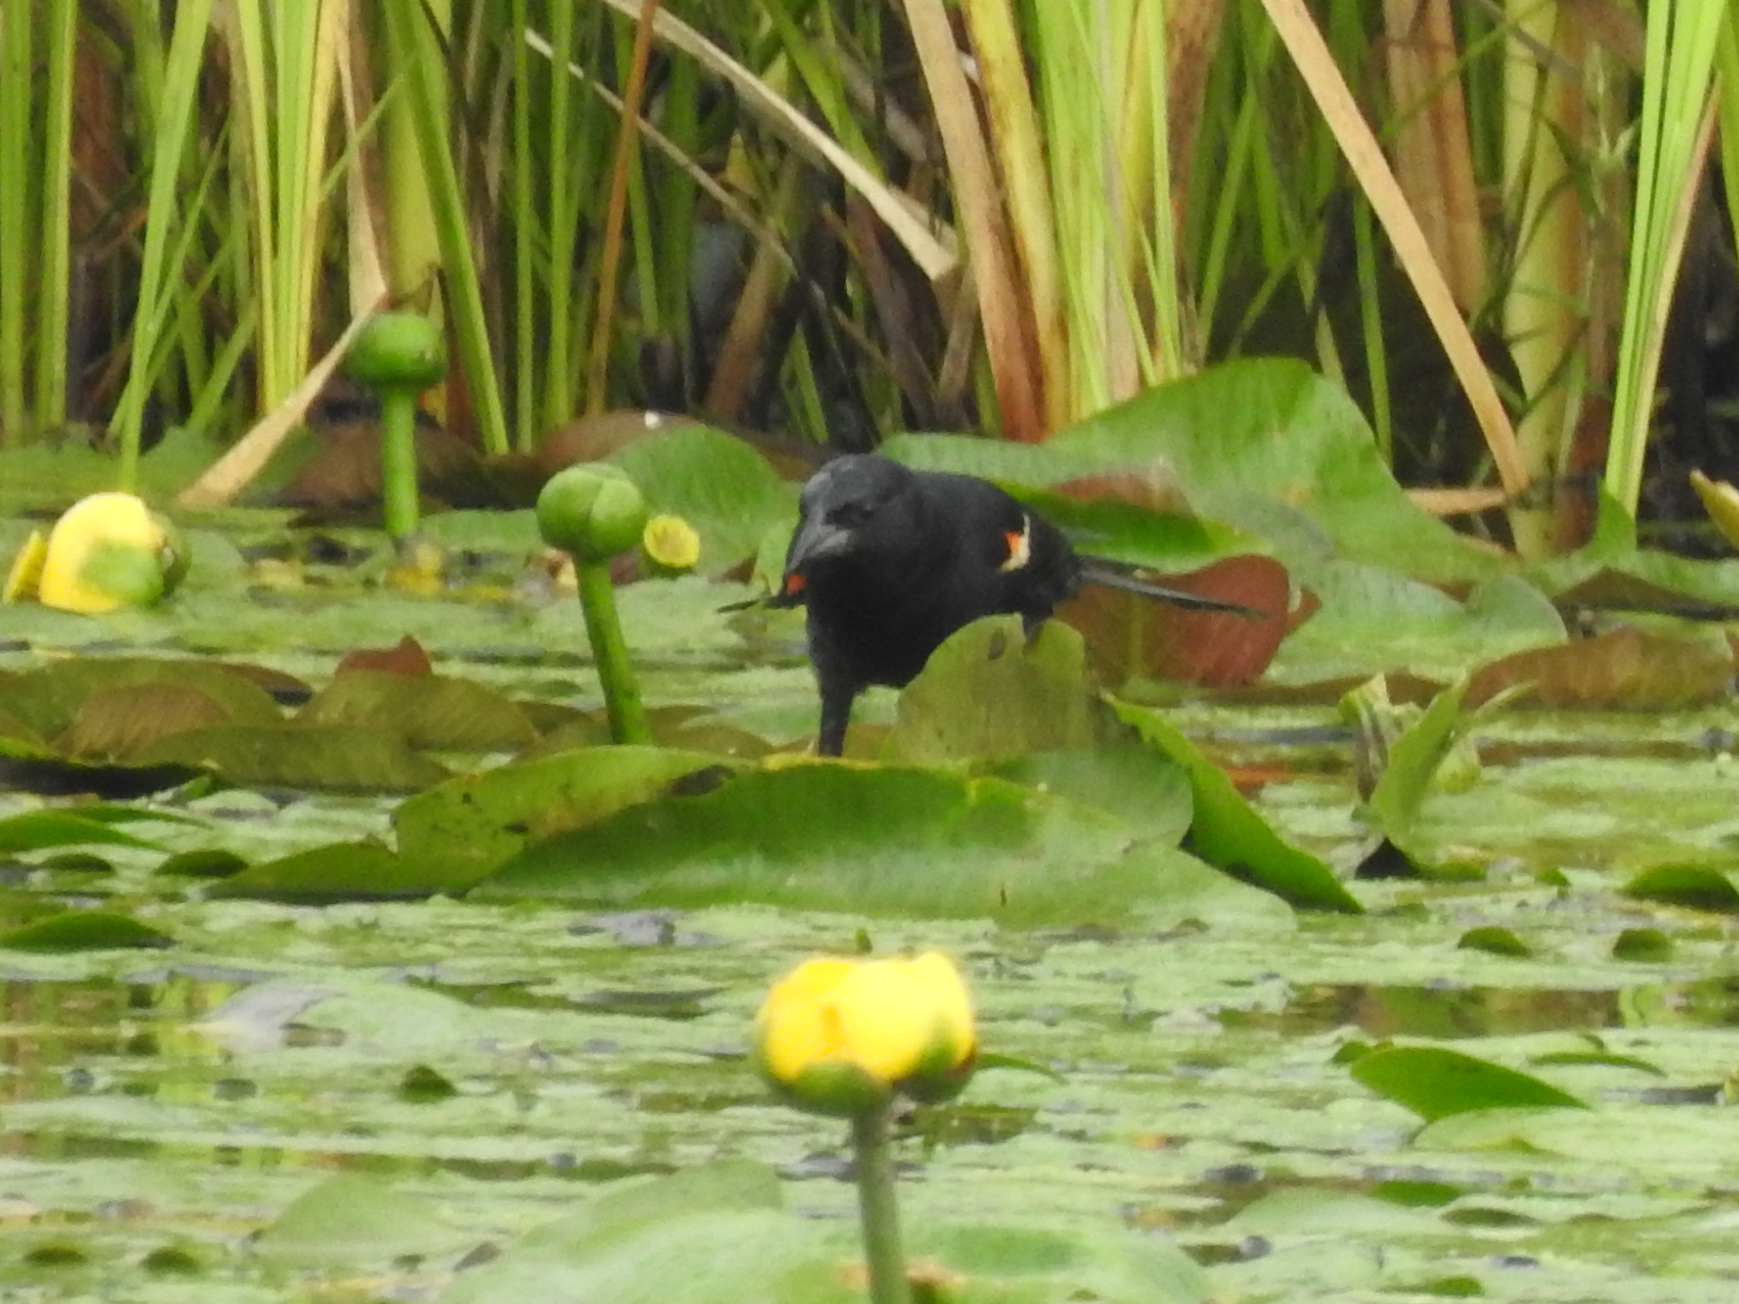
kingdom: Animalia
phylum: Chordata
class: Aves
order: Passeriformes
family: Icteridae
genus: Agelaius
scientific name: Agelaius phoeniceus
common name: Red-winged blackbird
